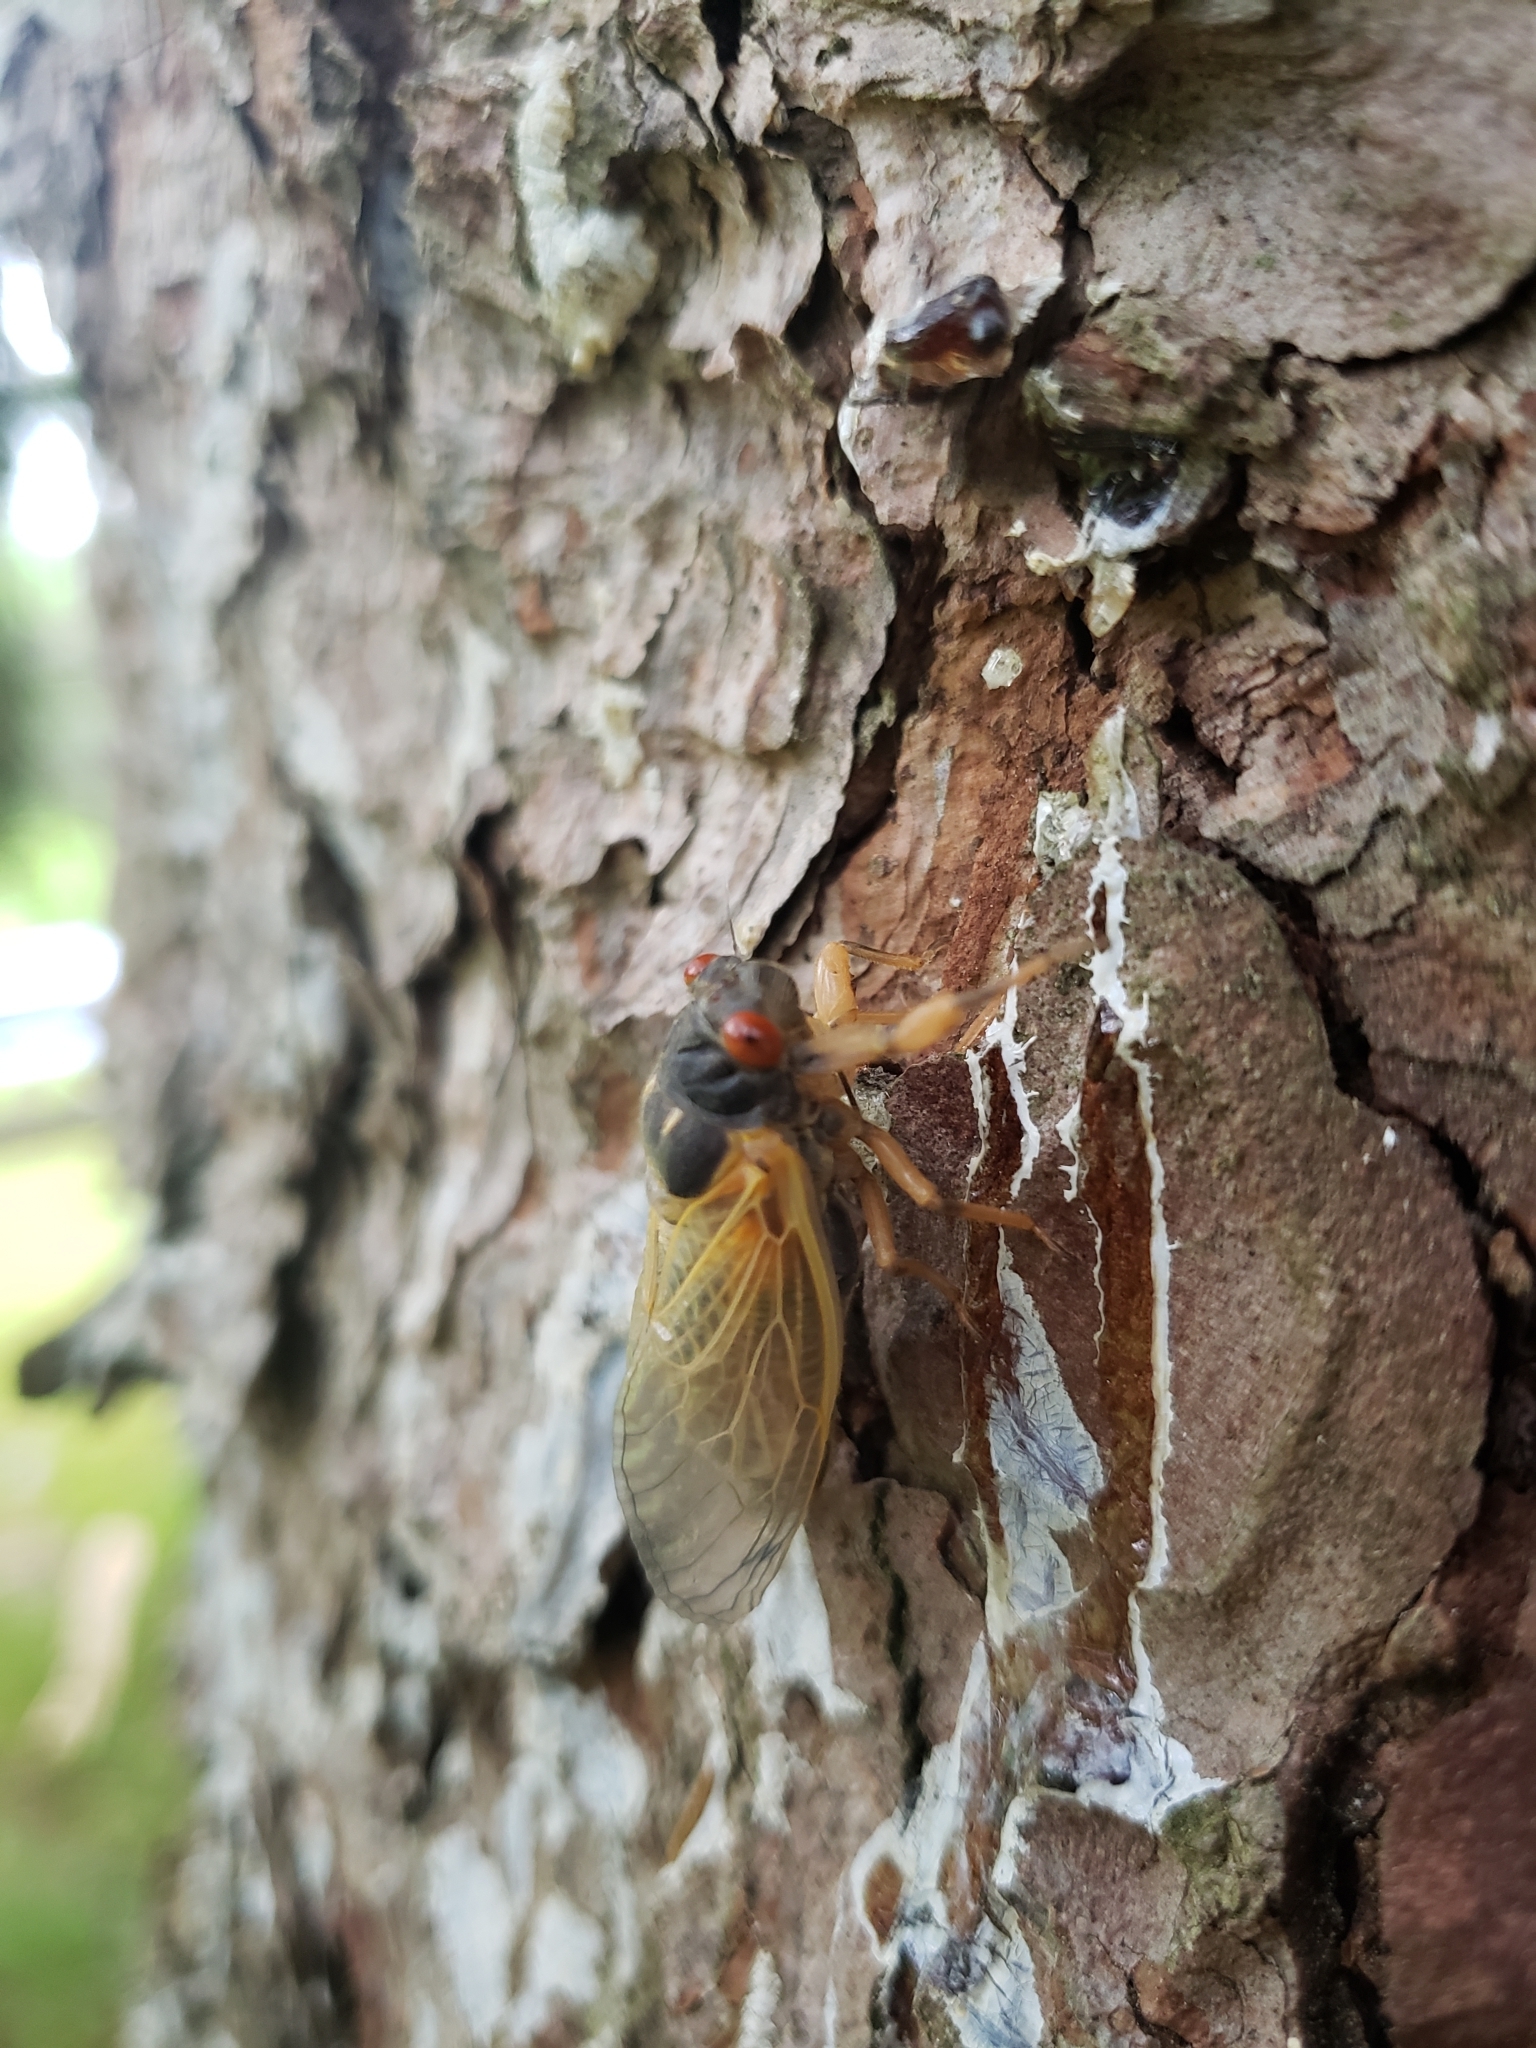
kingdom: Animalia
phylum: Arthropoda
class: Insecta
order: Hemiptera
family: Cicadidae
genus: Magicicada
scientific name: Magicicada cassini
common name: Cassin's 17-year cicada
